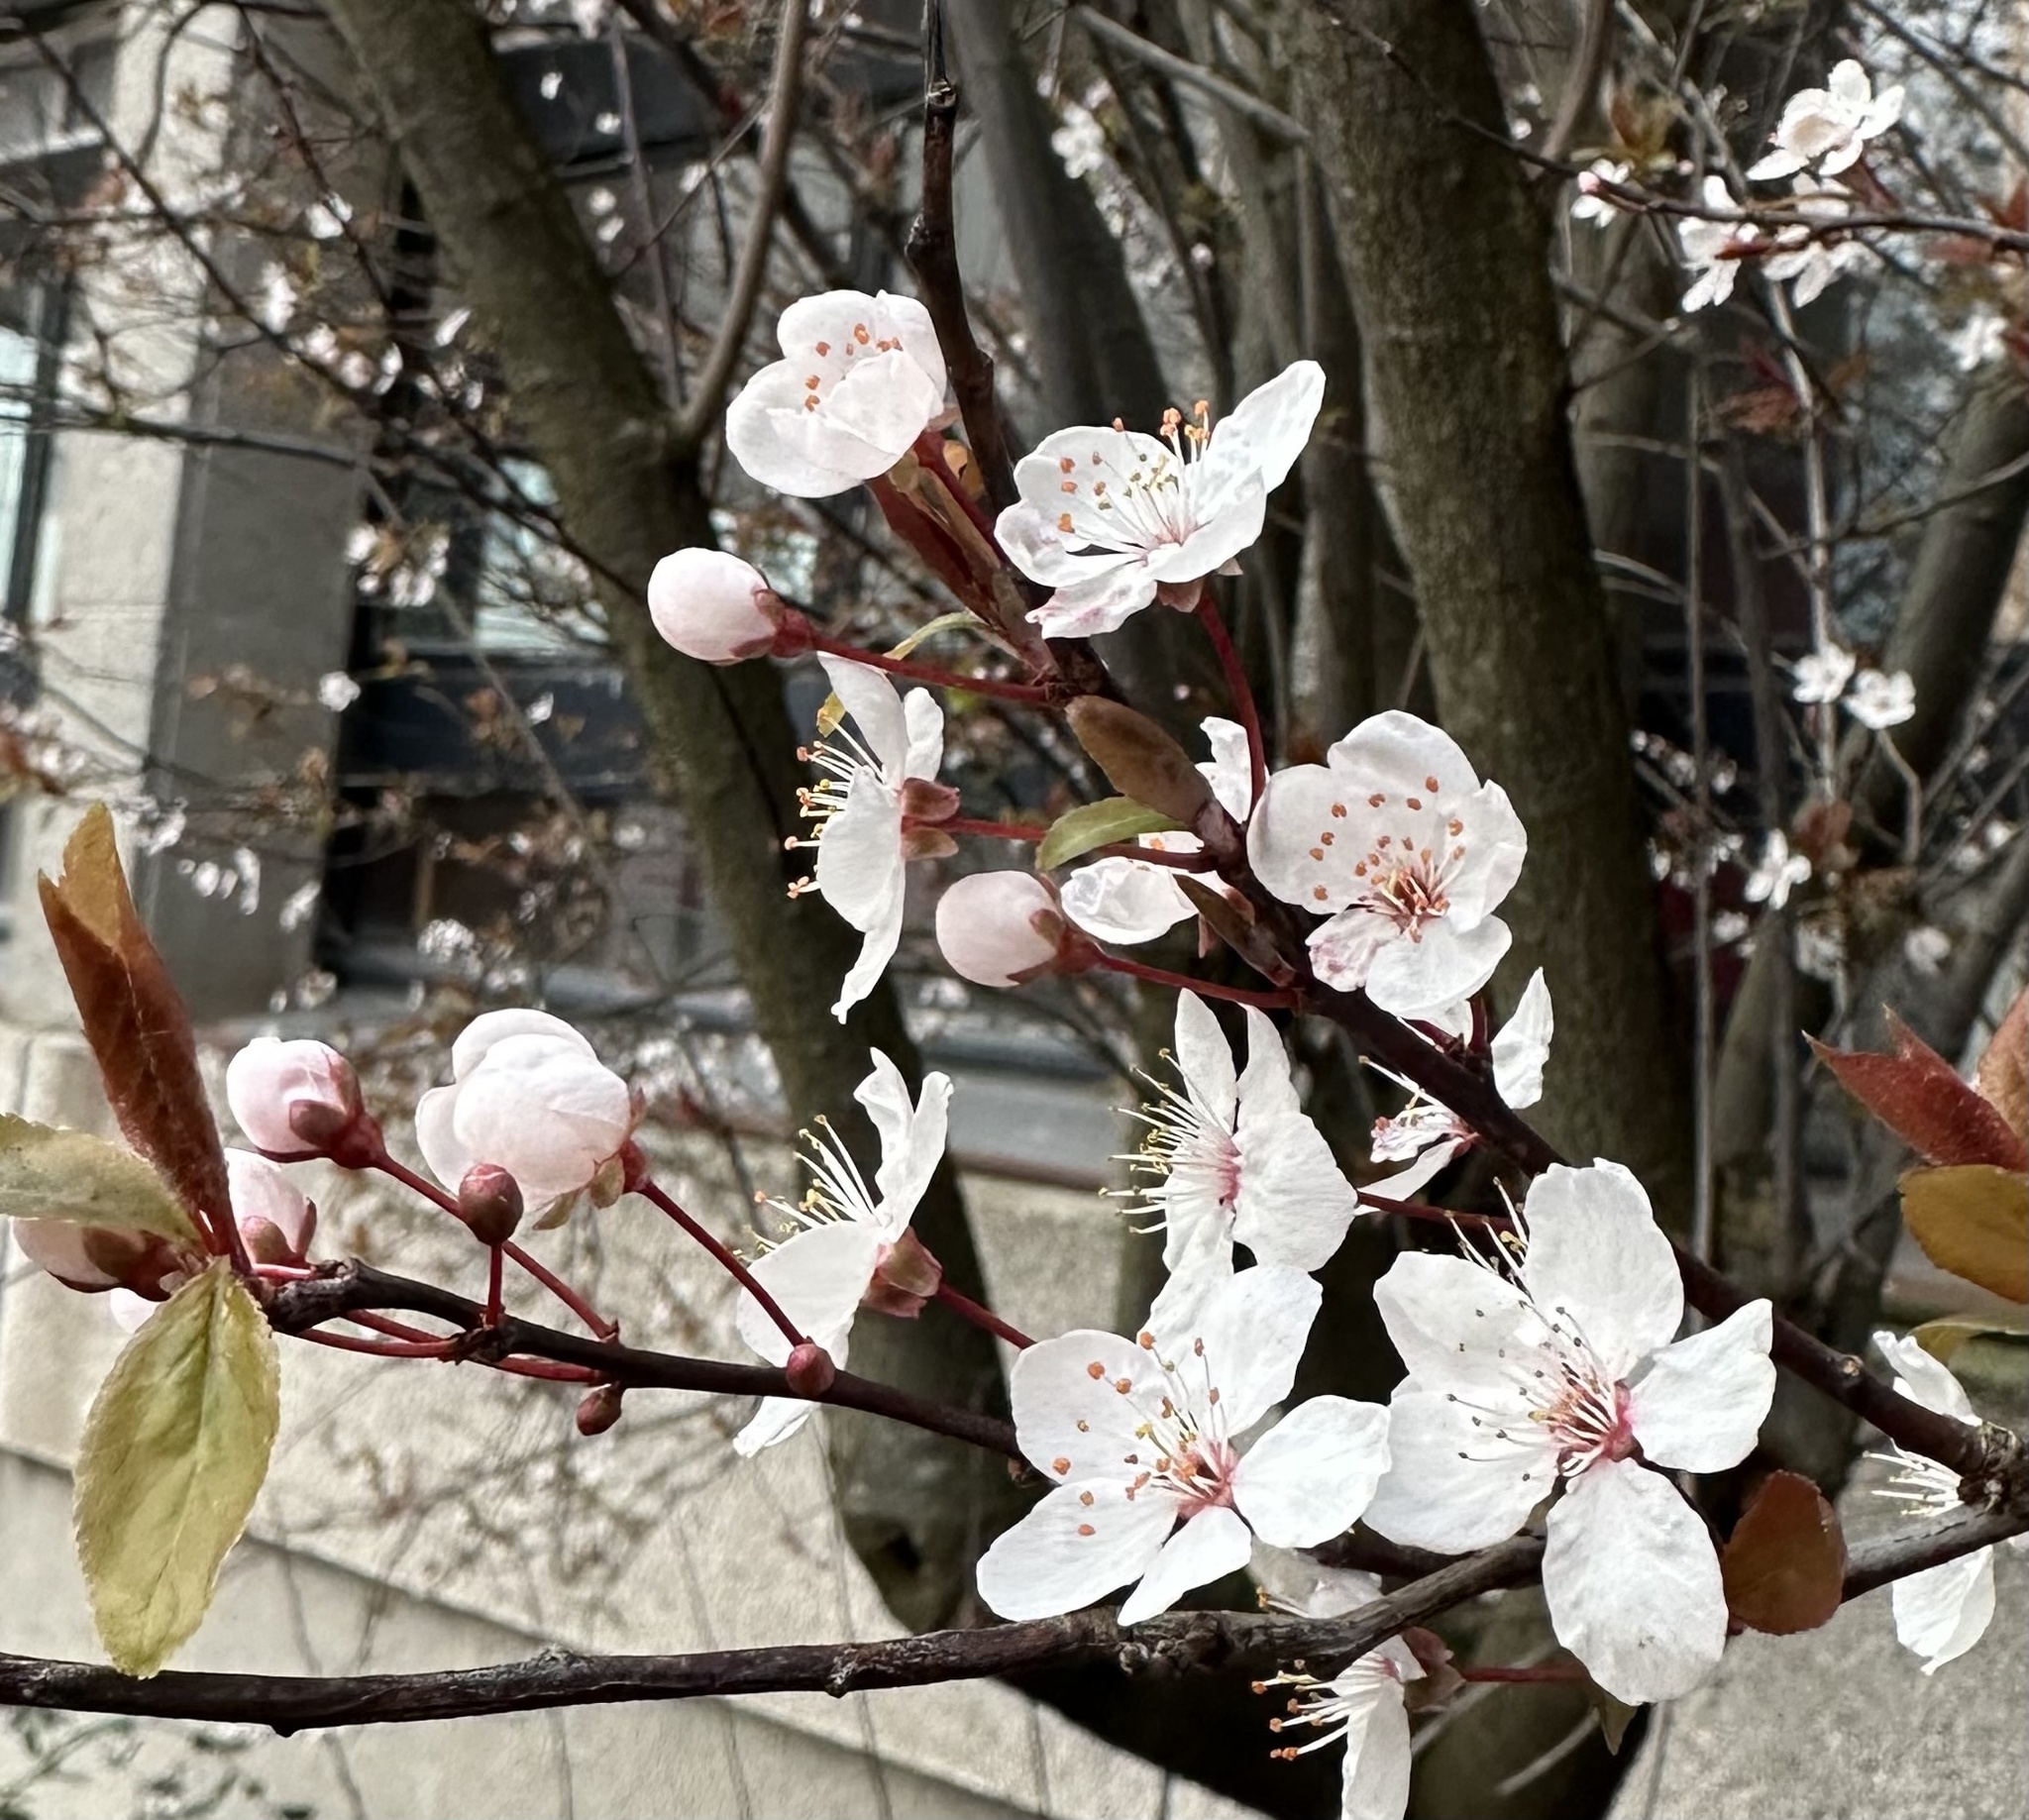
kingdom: Plantae
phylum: Tracheophyta
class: Magnoliopsida
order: Rosales
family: Rosaceae
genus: Prunus
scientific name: Prunus cerasifera
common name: Cherry plum
